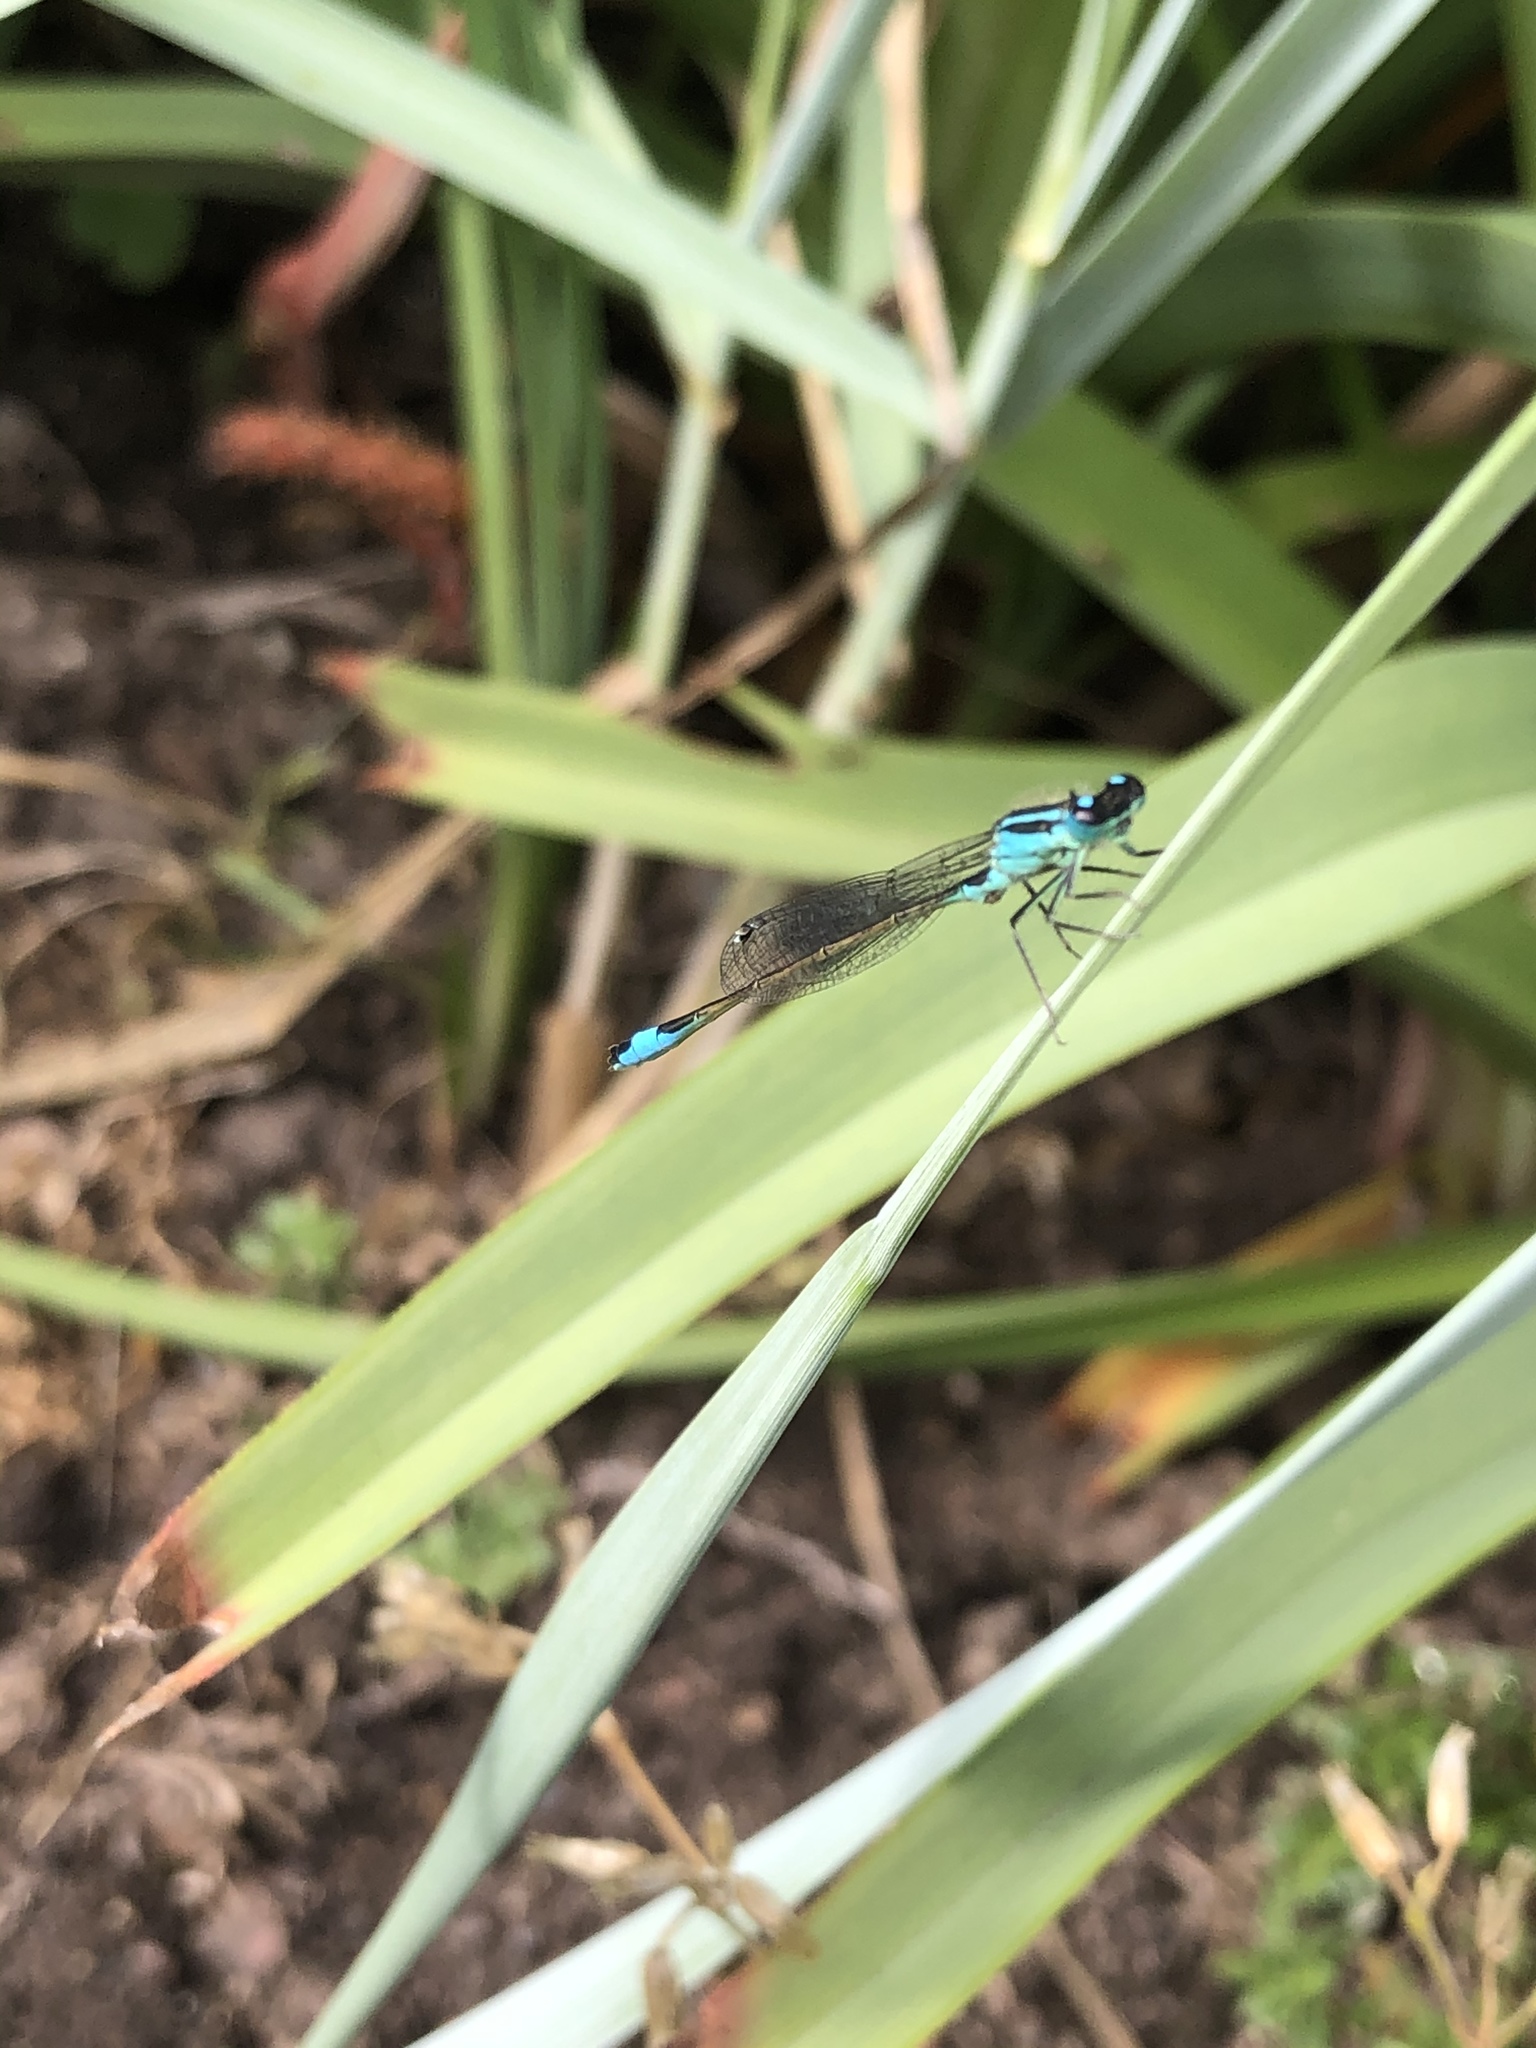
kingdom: Animalia
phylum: Arthropoda
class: Insecta
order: Odonata
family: Coenagrionidae
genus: Ischnura
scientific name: Ischnura elegans
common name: Blue-tailed damselfly
